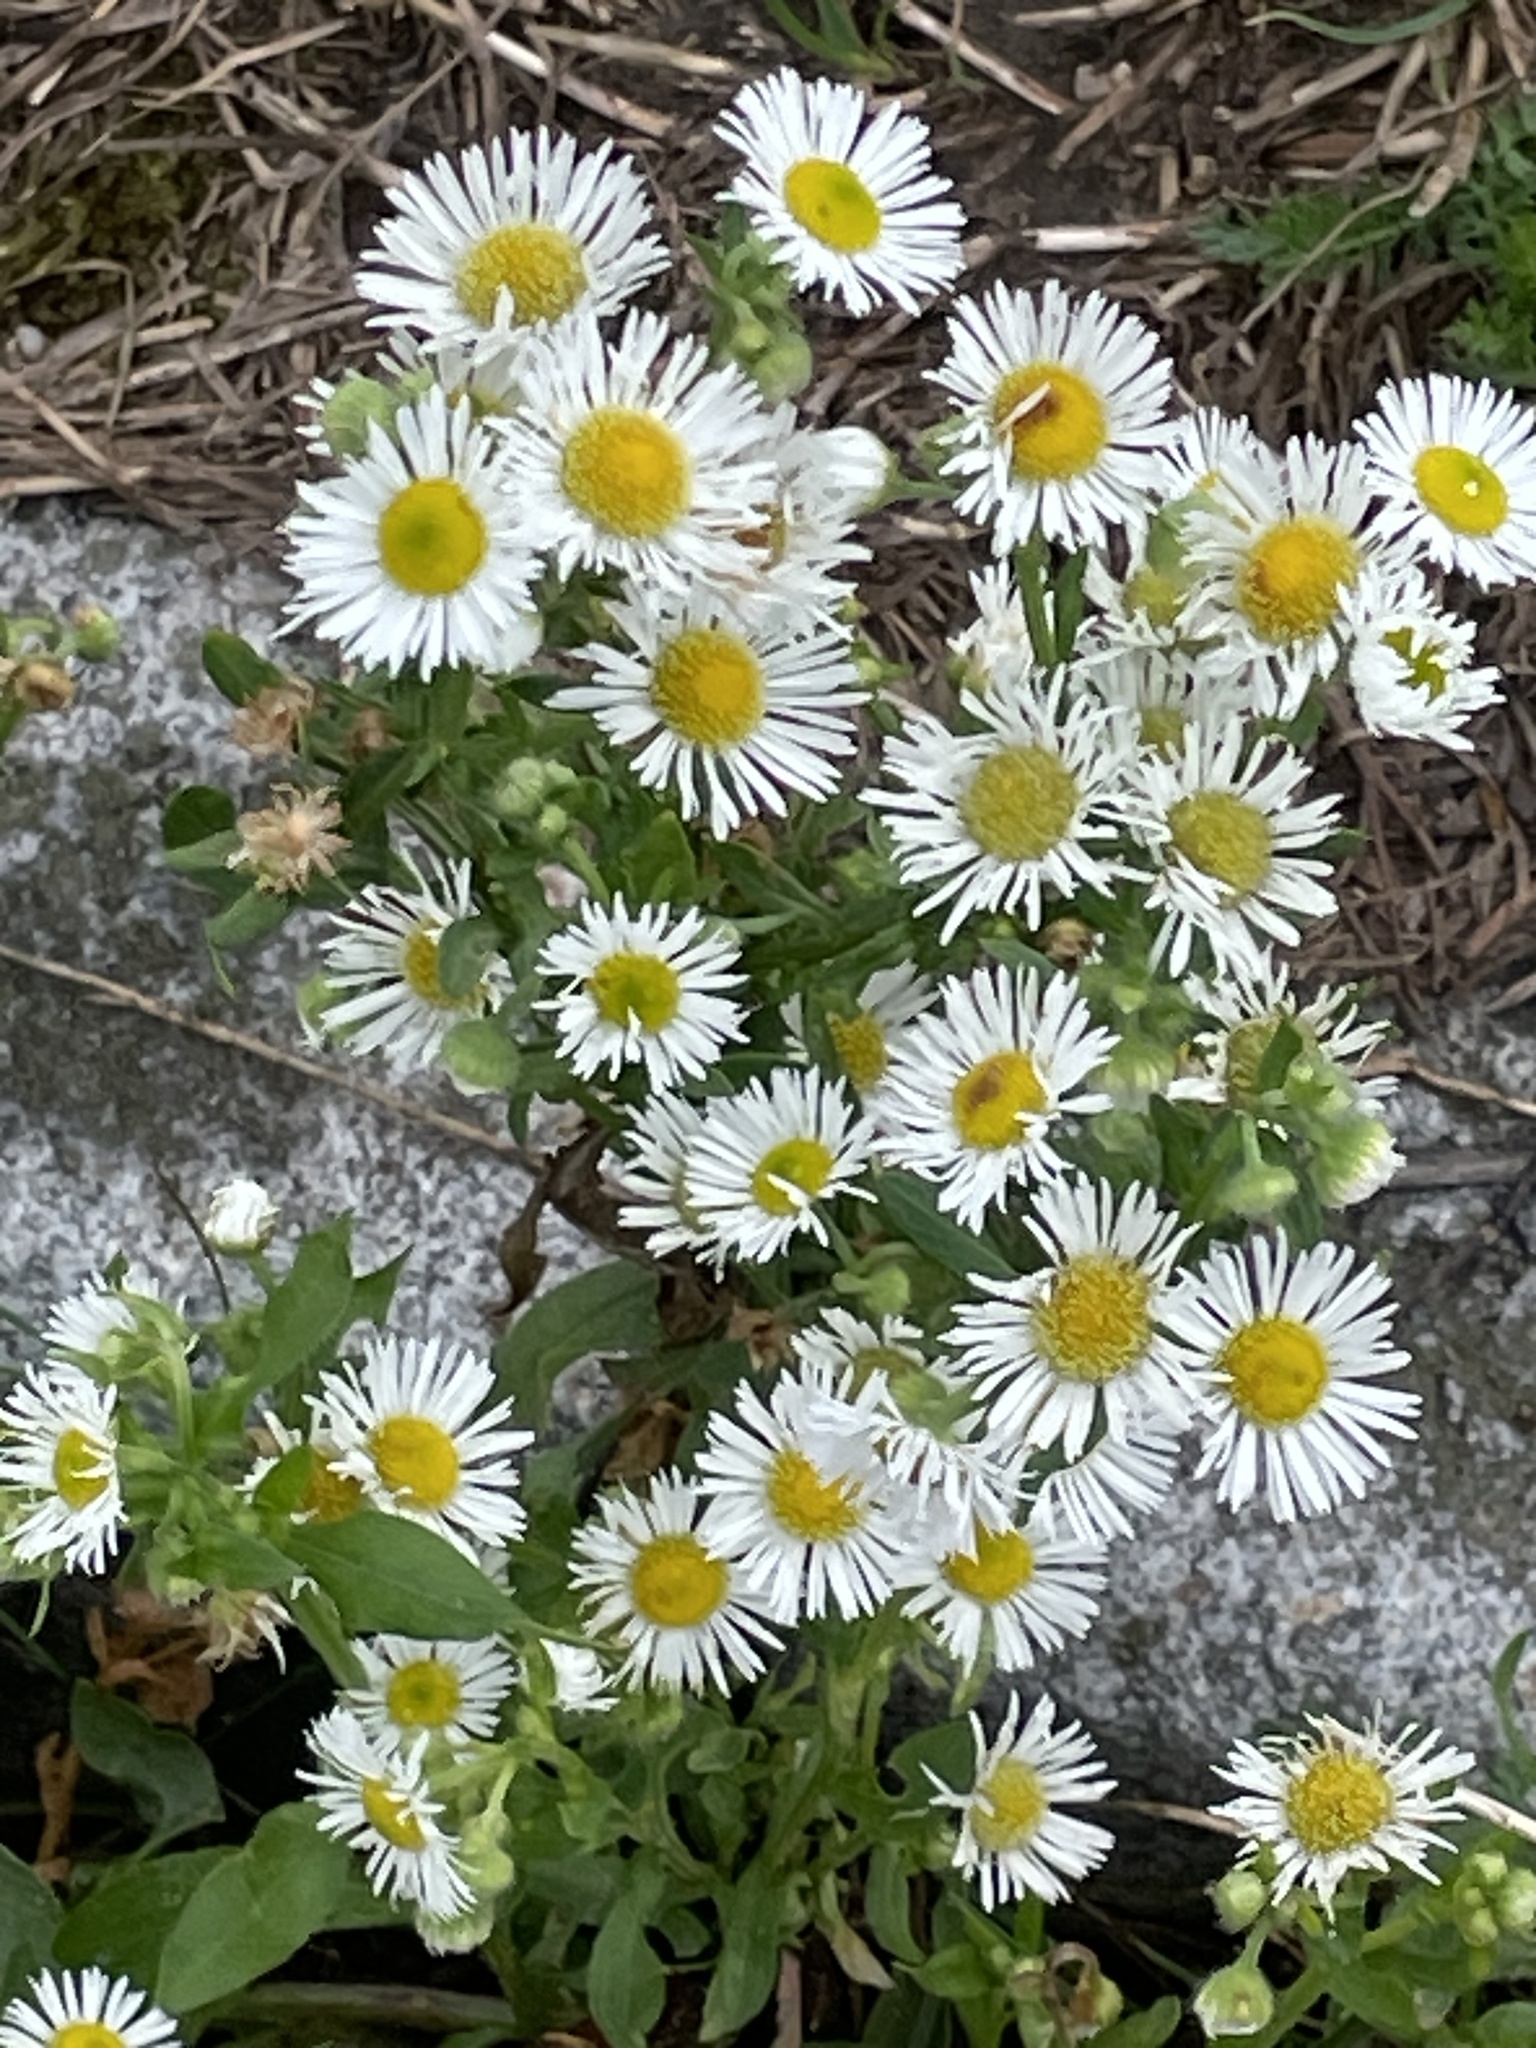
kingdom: Plantae
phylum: Tracheophyta
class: Magnoliopsida
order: Asterales
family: Asteraceae
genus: Erigeron
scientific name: Erigeron annuus
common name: Tall fleabane
